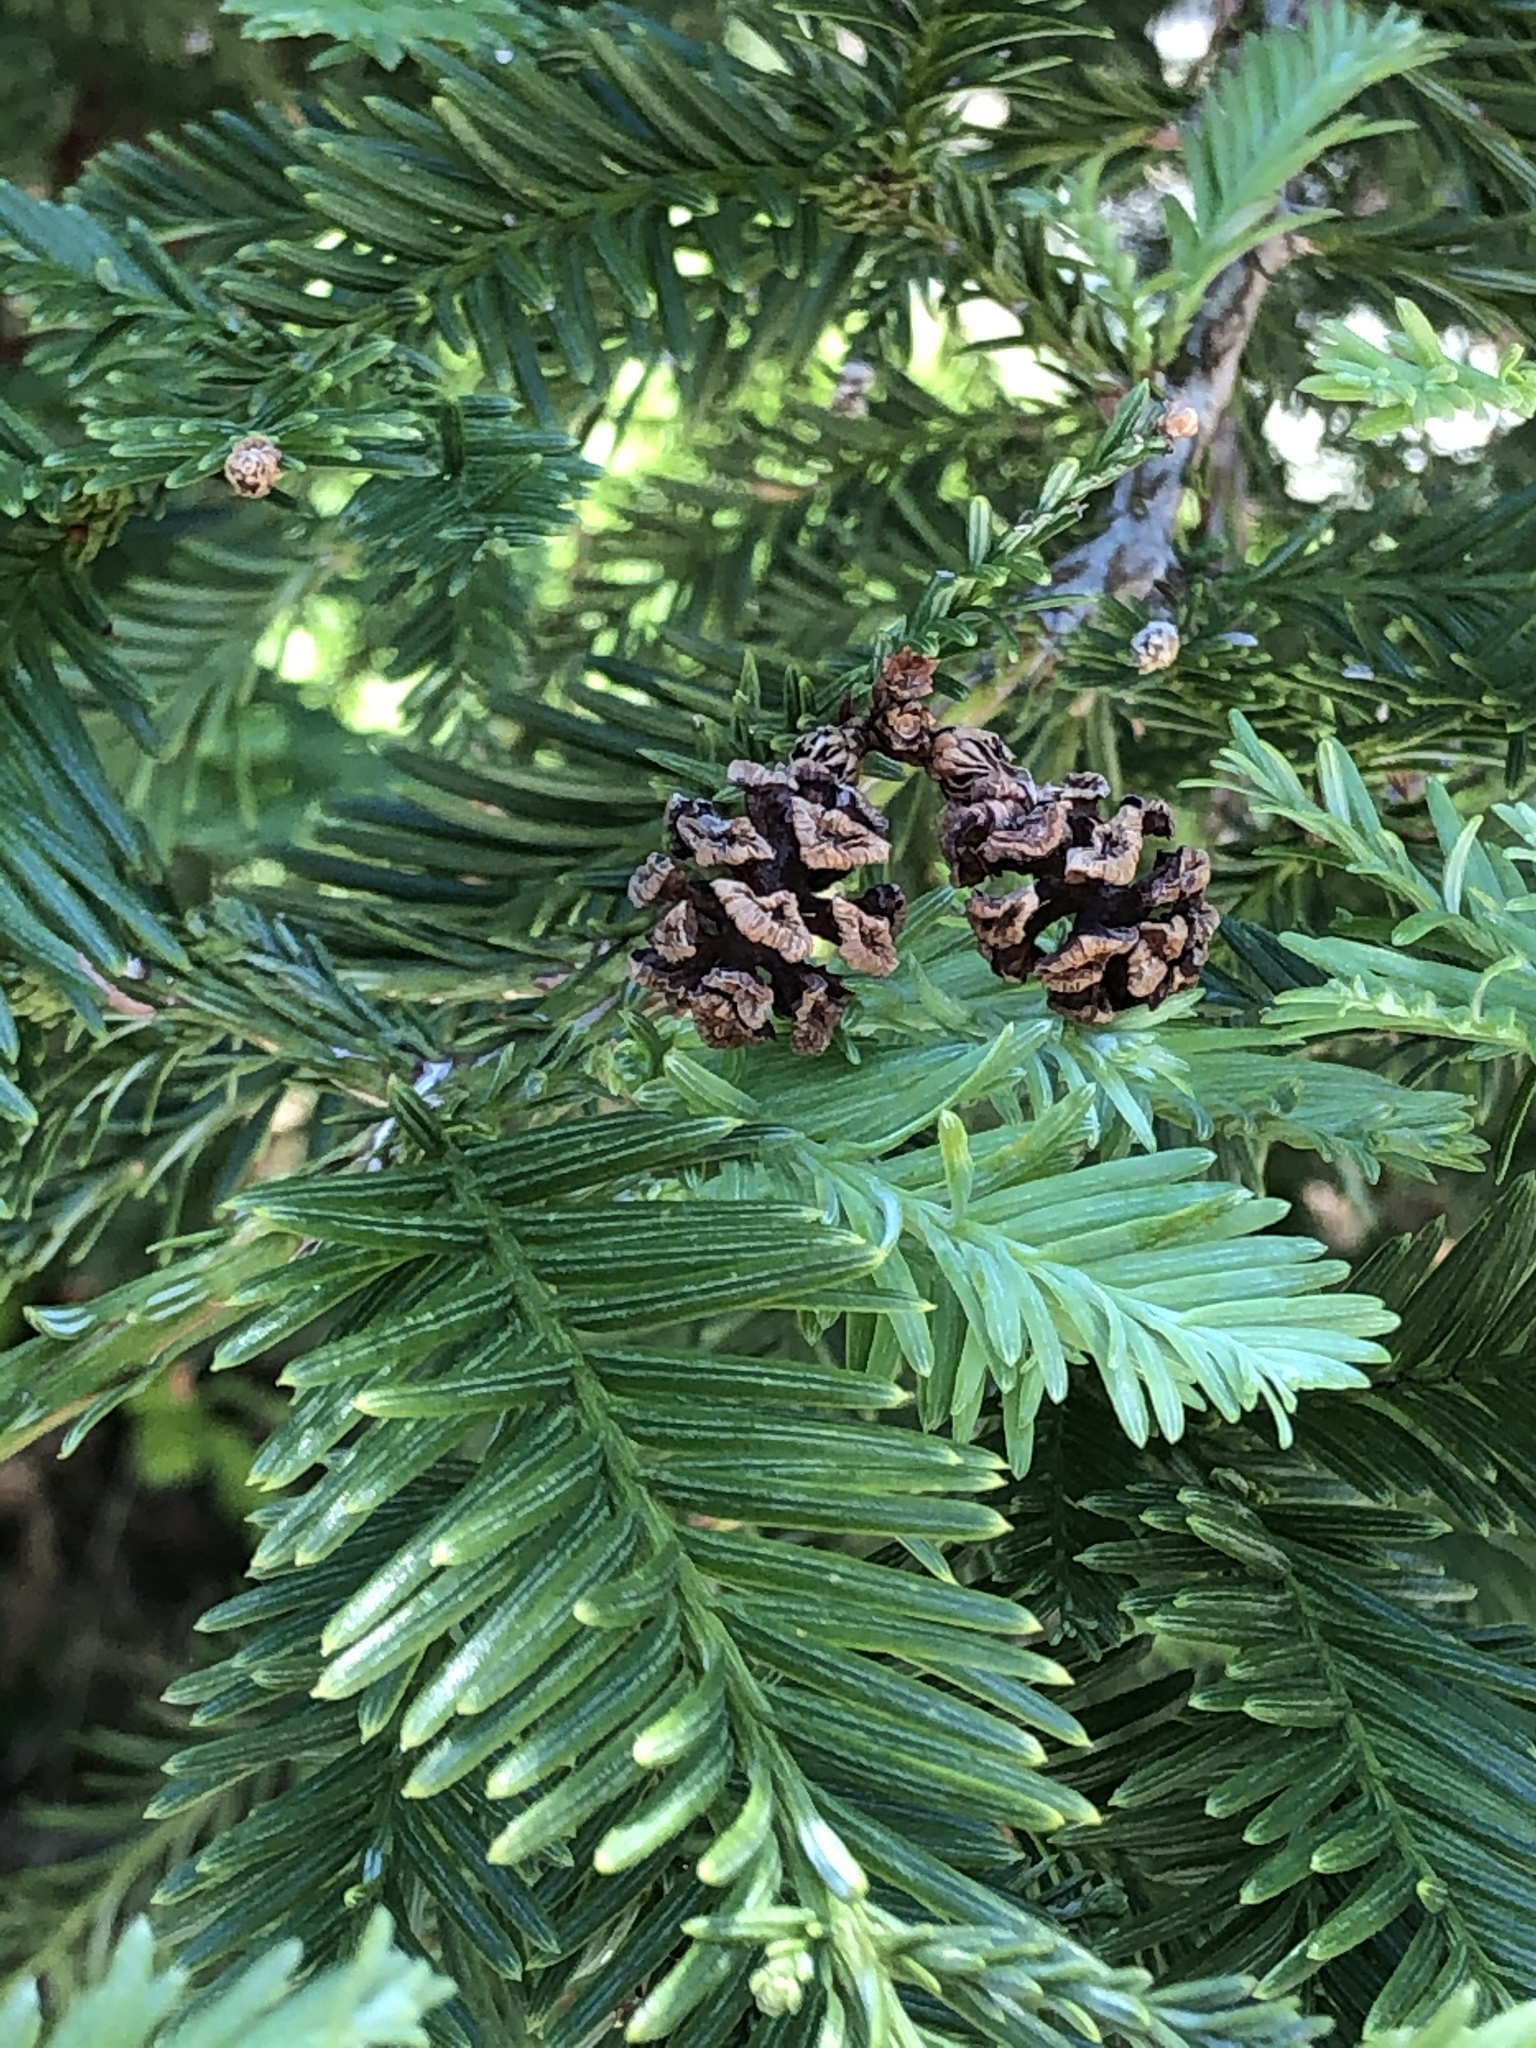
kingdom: Plantae
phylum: Tracheophyta
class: Pinopsida
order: Pinales
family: Cupressaceae
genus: Sequoia
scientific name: Sequoia sempervirens
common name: Coast redwood
